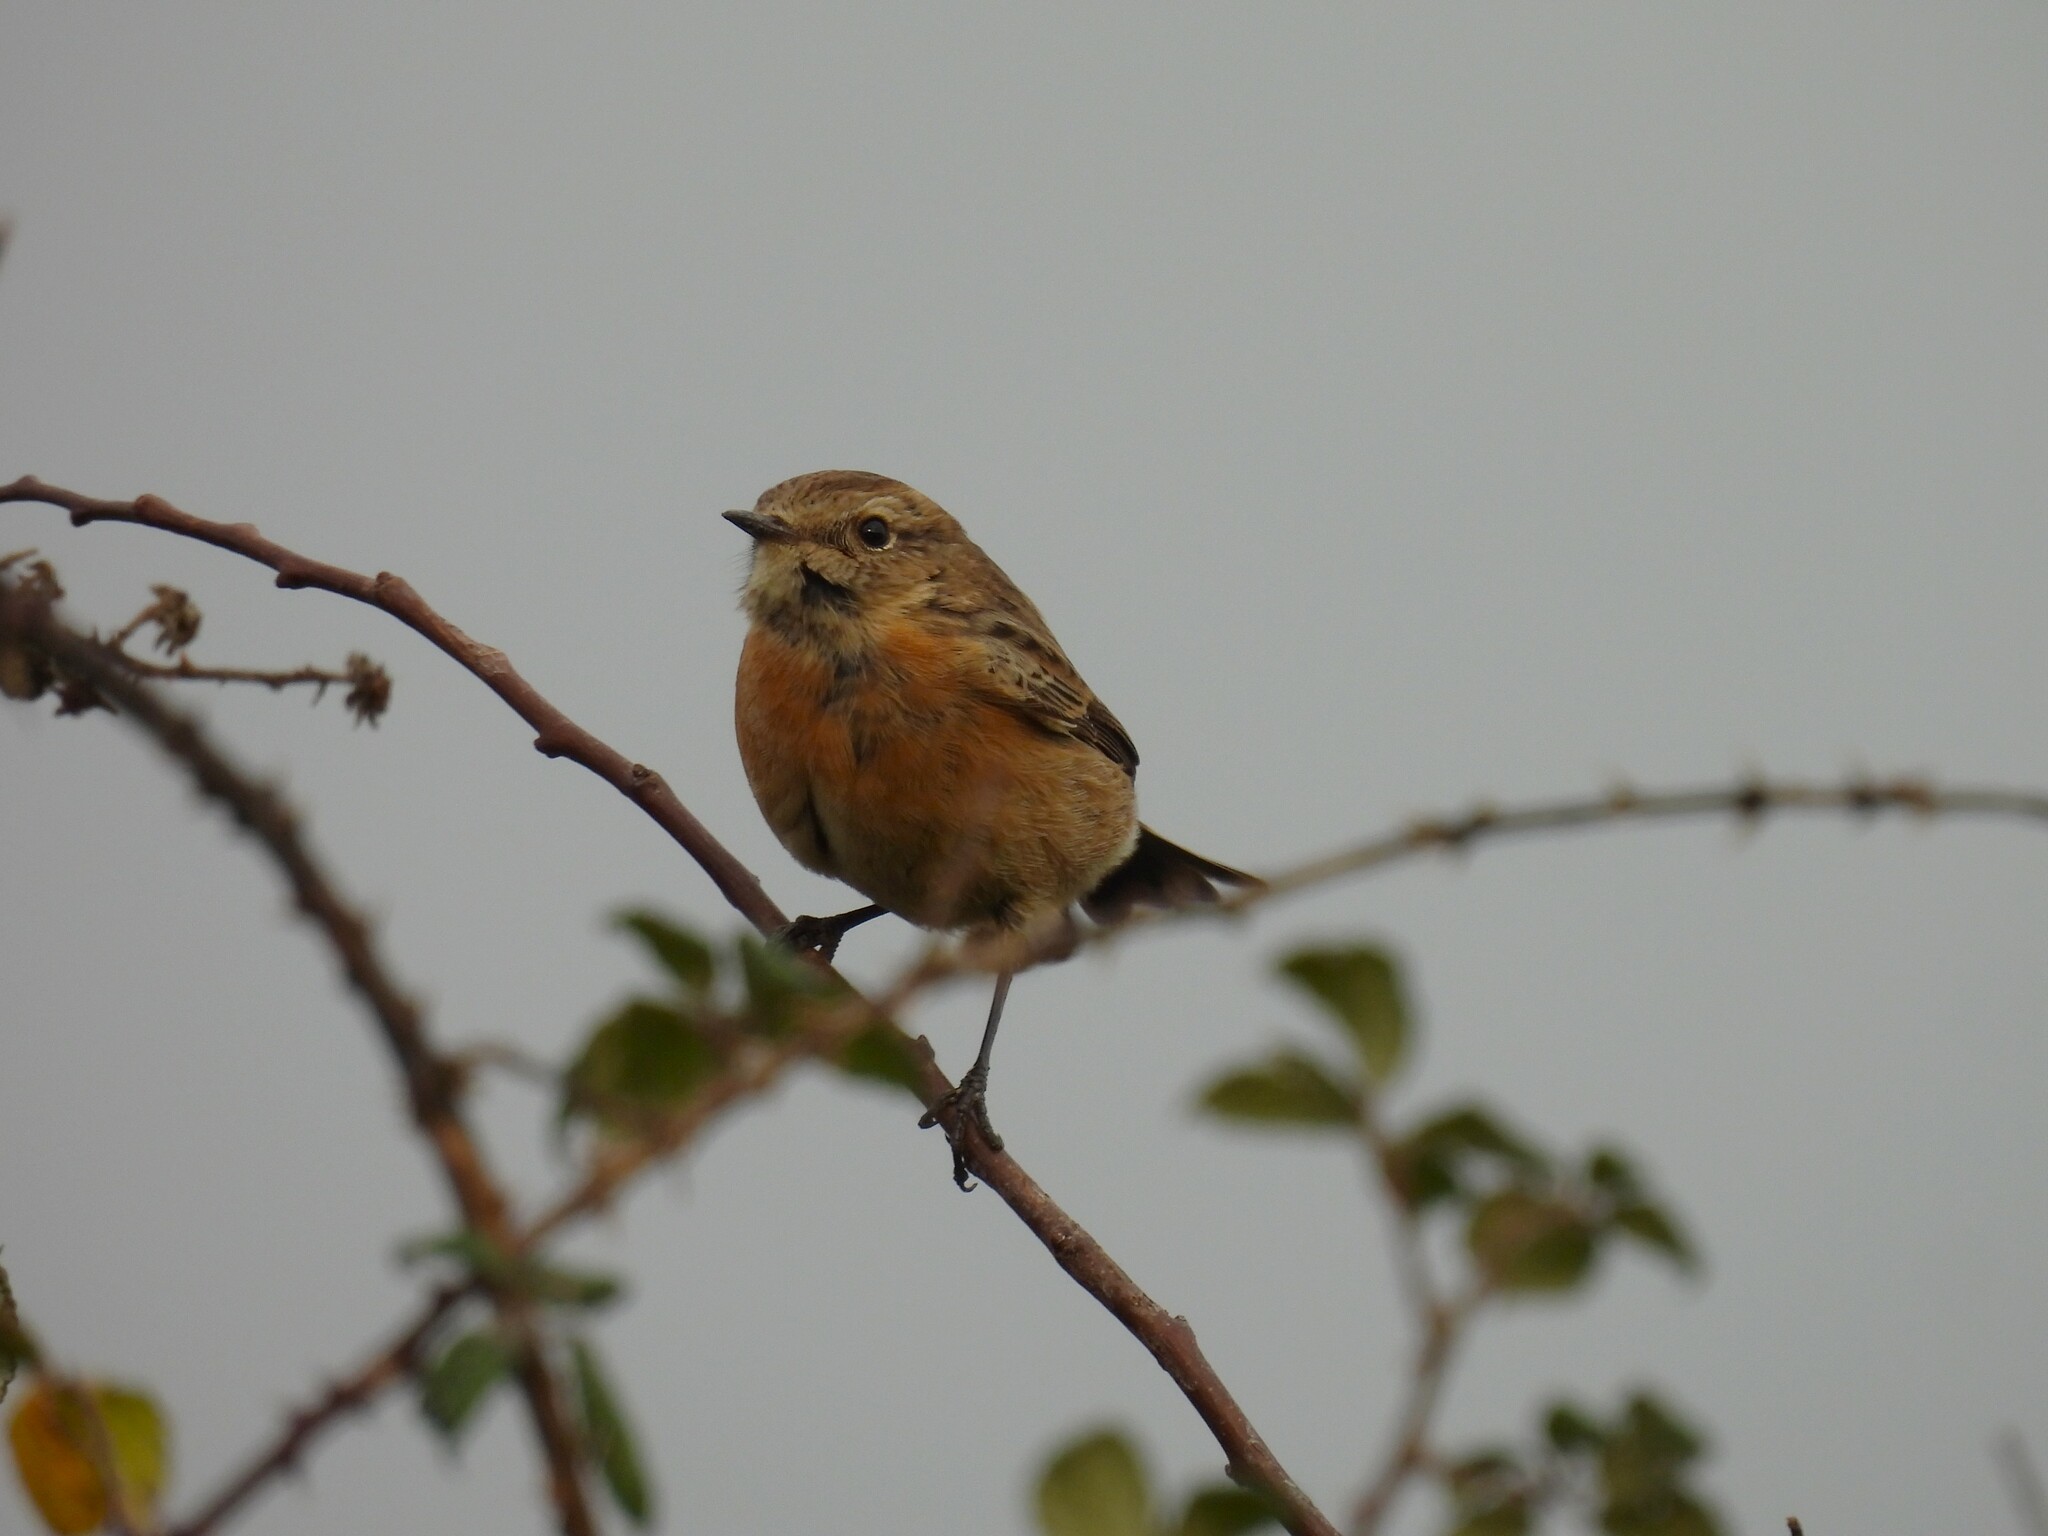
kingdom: Animalia
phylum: Chordata
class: Aves
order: Passeriformes
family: Muscicapidae
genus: Saxicola
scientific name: Saxicola rubicola
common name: European stonechat
